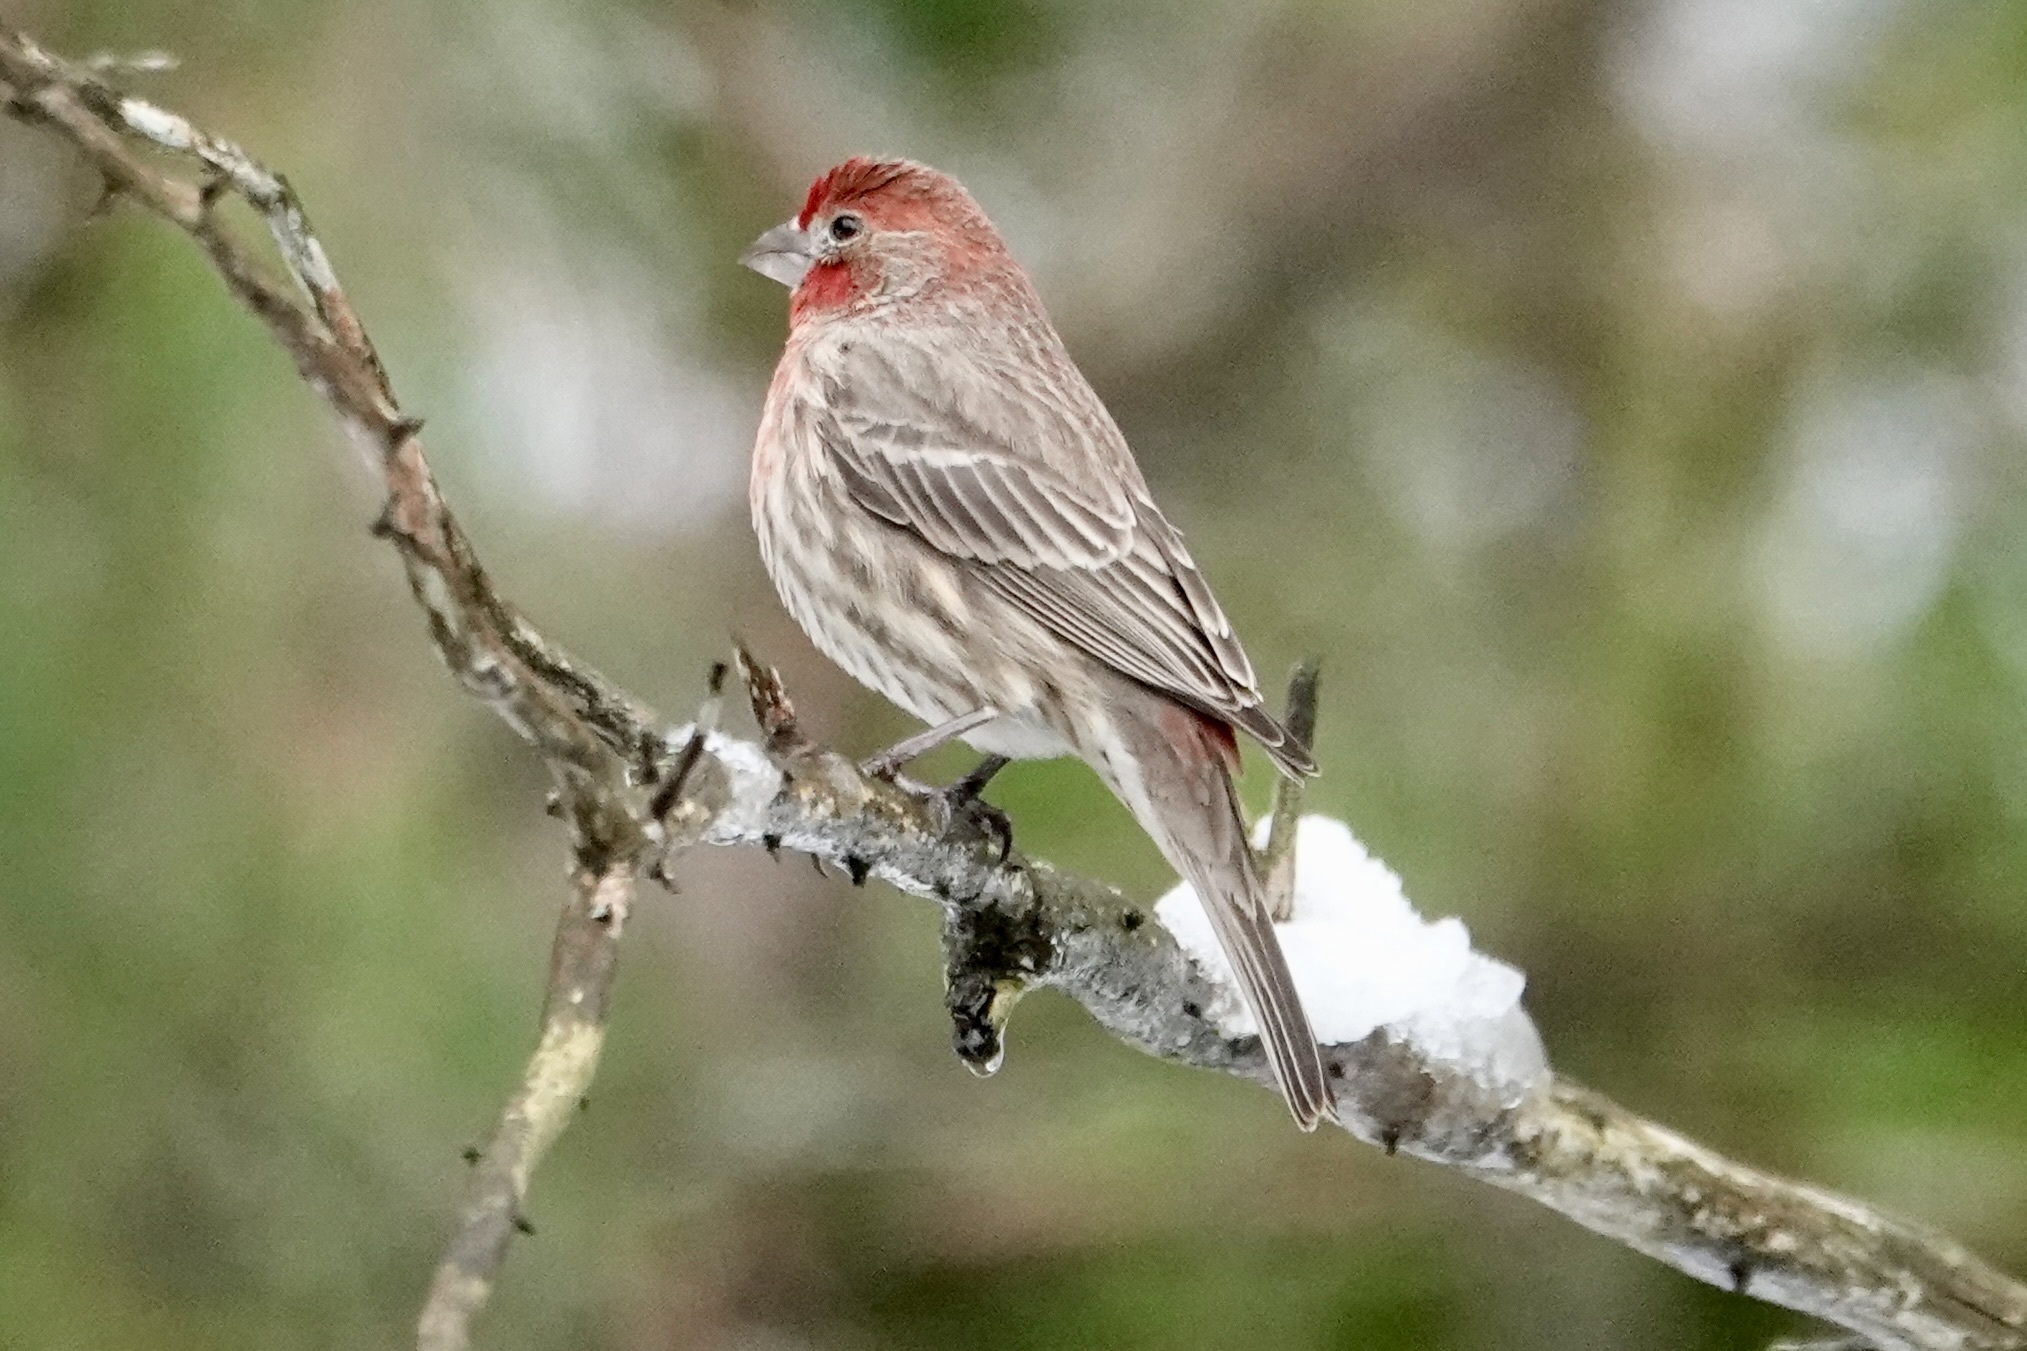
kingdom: Animalia
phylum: Chordata
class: Aves
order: Passeriformes
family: Fringillidae
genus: Haemorhous
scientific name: Haemorhous mexicanus
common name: House finch
